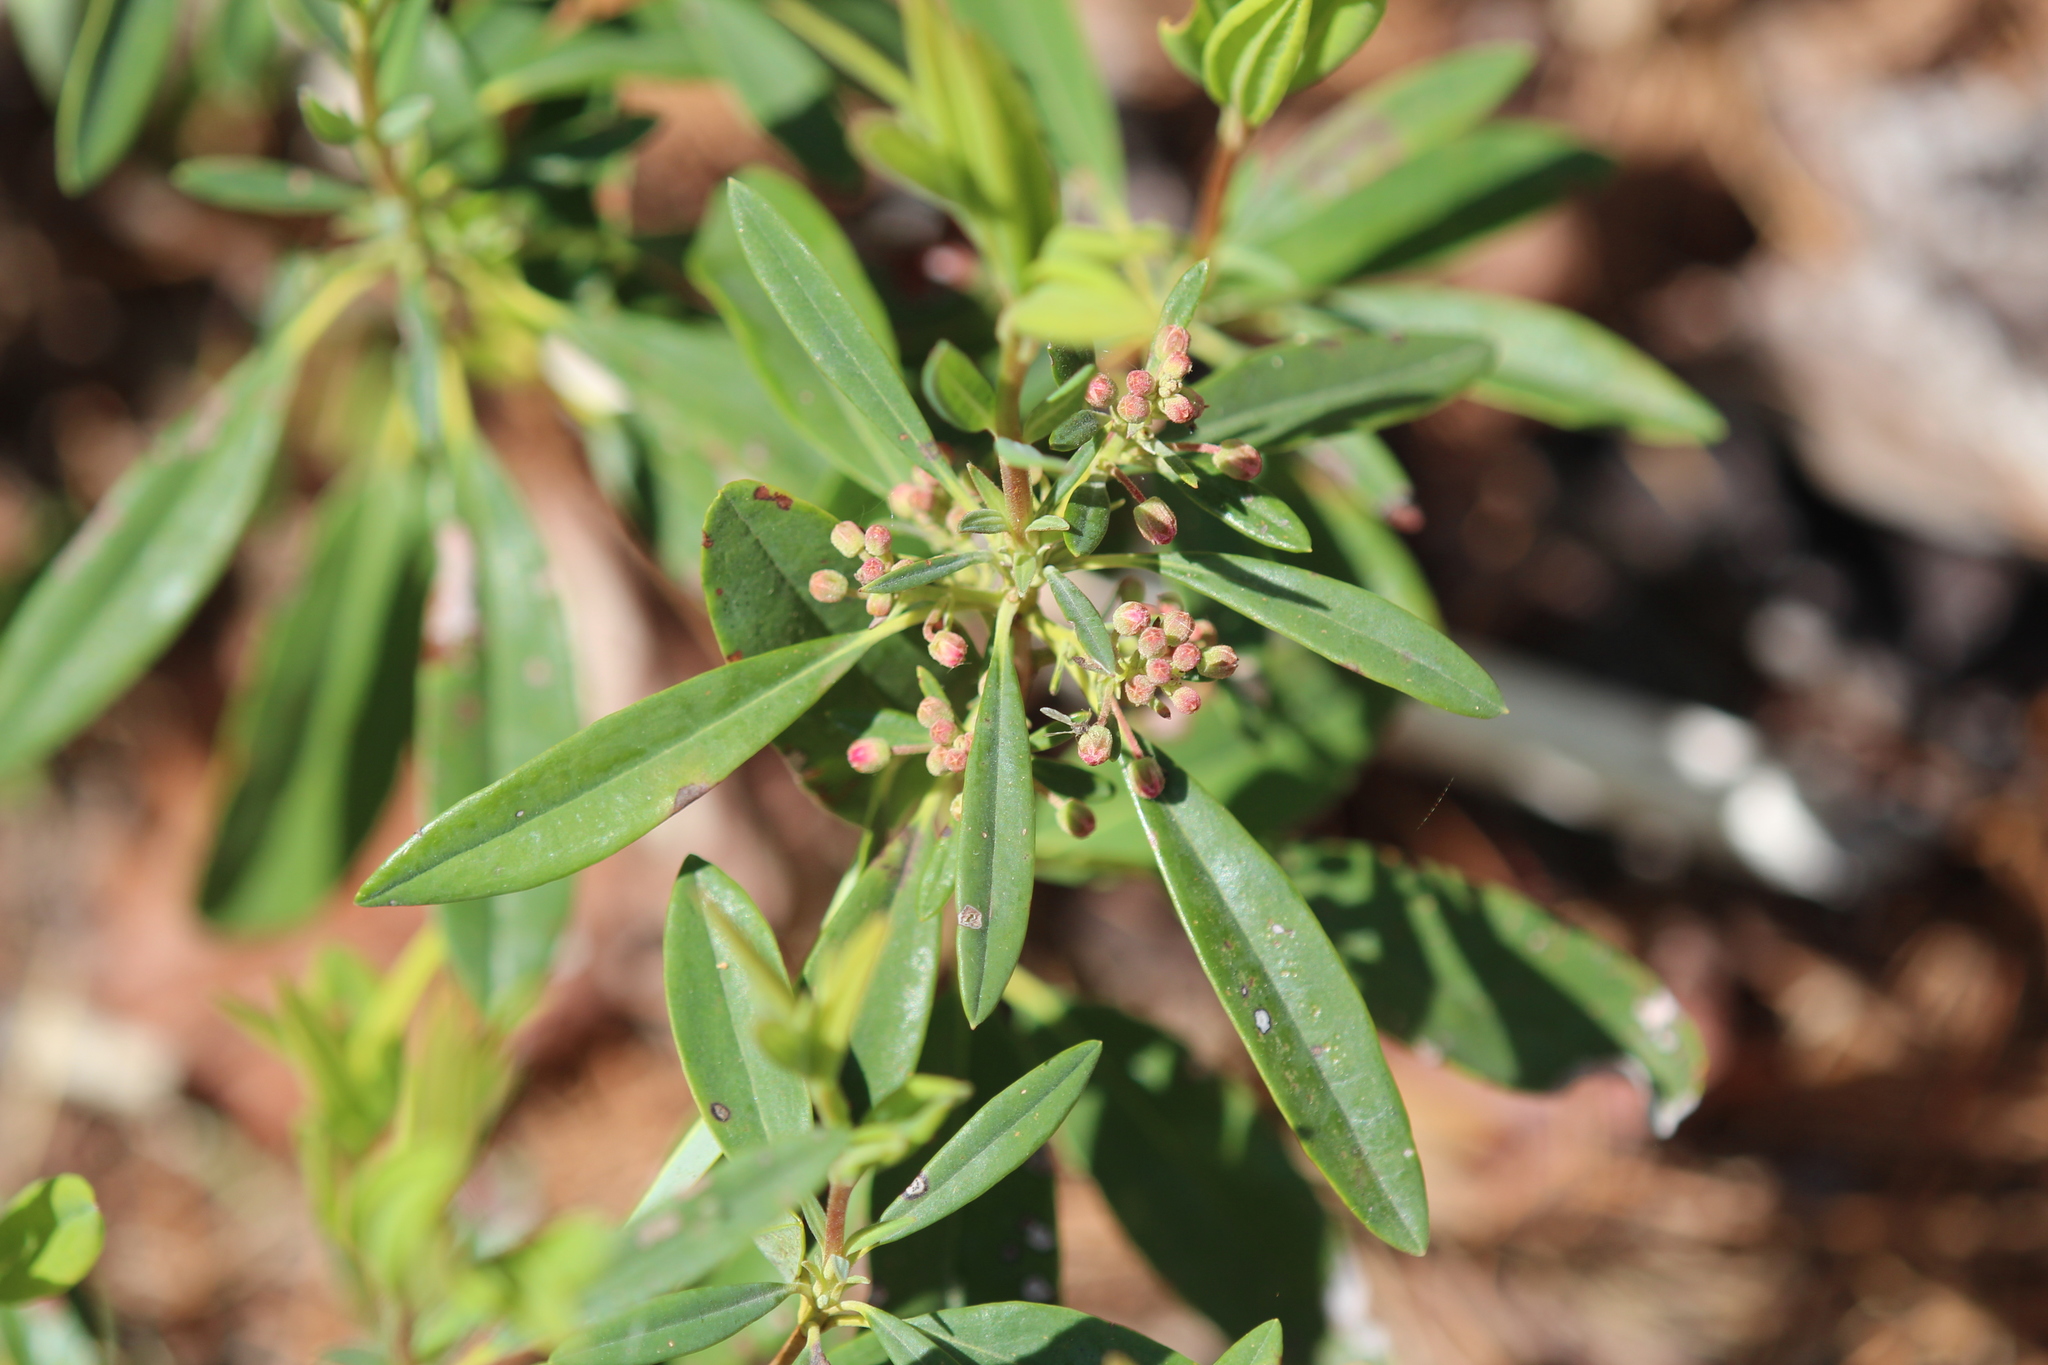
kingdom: Plantae
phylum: Tracheophyta
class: Magnoliopsida
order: Ericales
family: Ericaceae
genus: Kalmia
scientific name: Kalmia angustifolia
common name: Sheep-laurel
